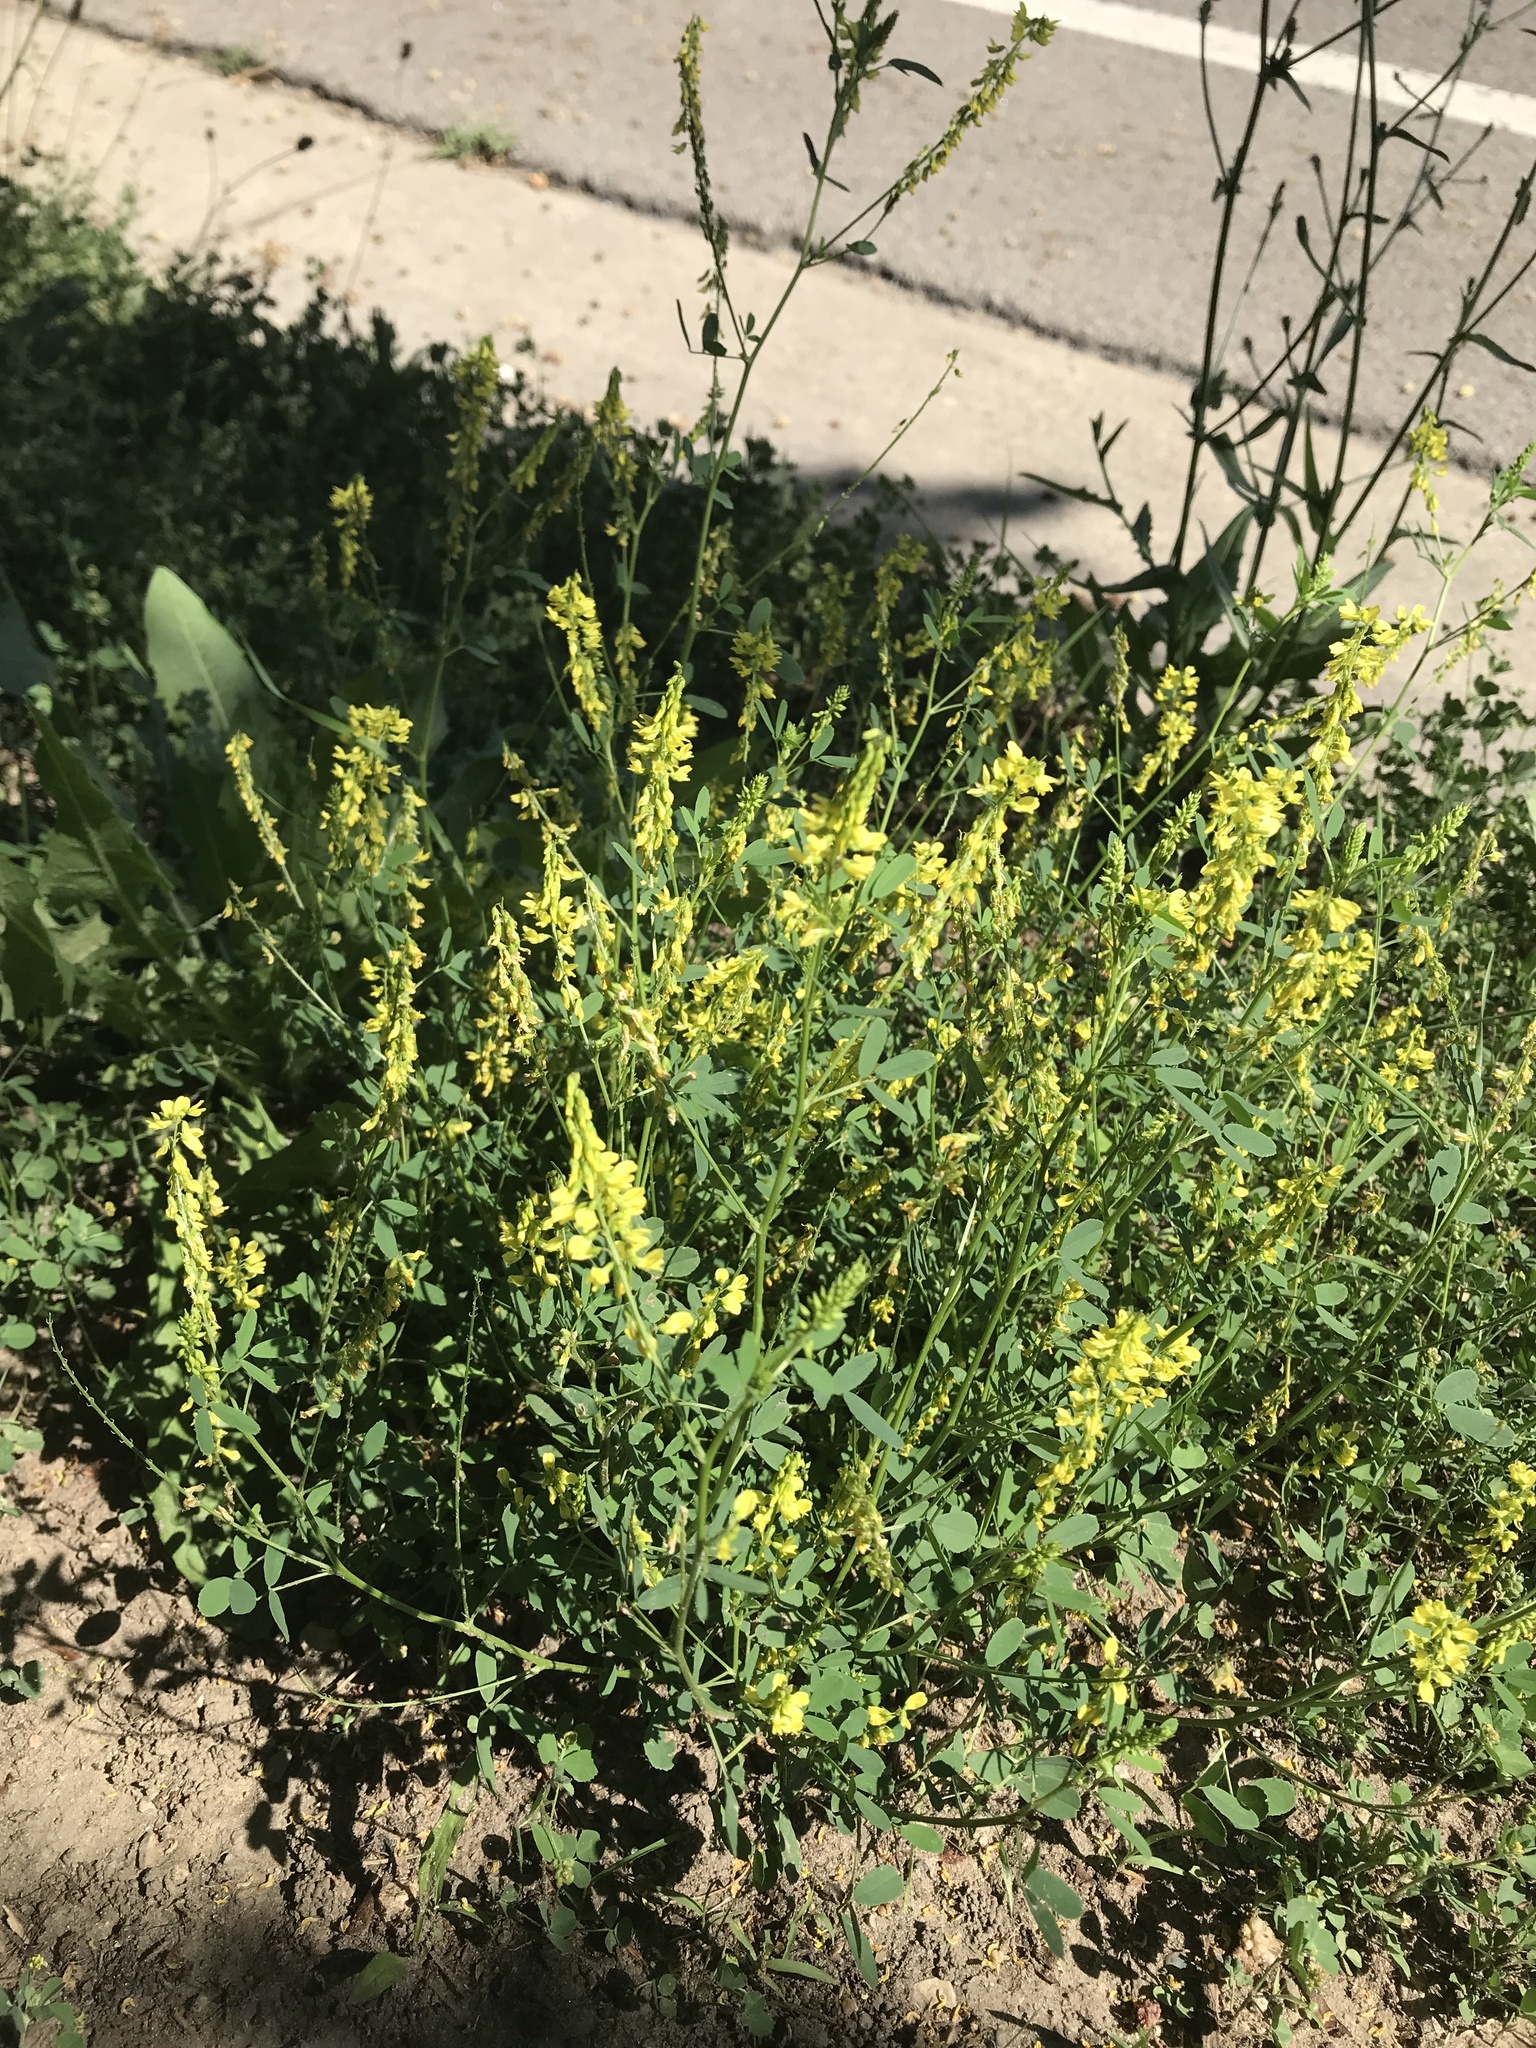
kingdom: Plantae
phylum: Tracheophyta
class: Magnoliopsida
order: Fabales
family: Fabaceae
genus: Melilotus
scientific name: Melilotus officinalis
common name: Sweetclover
